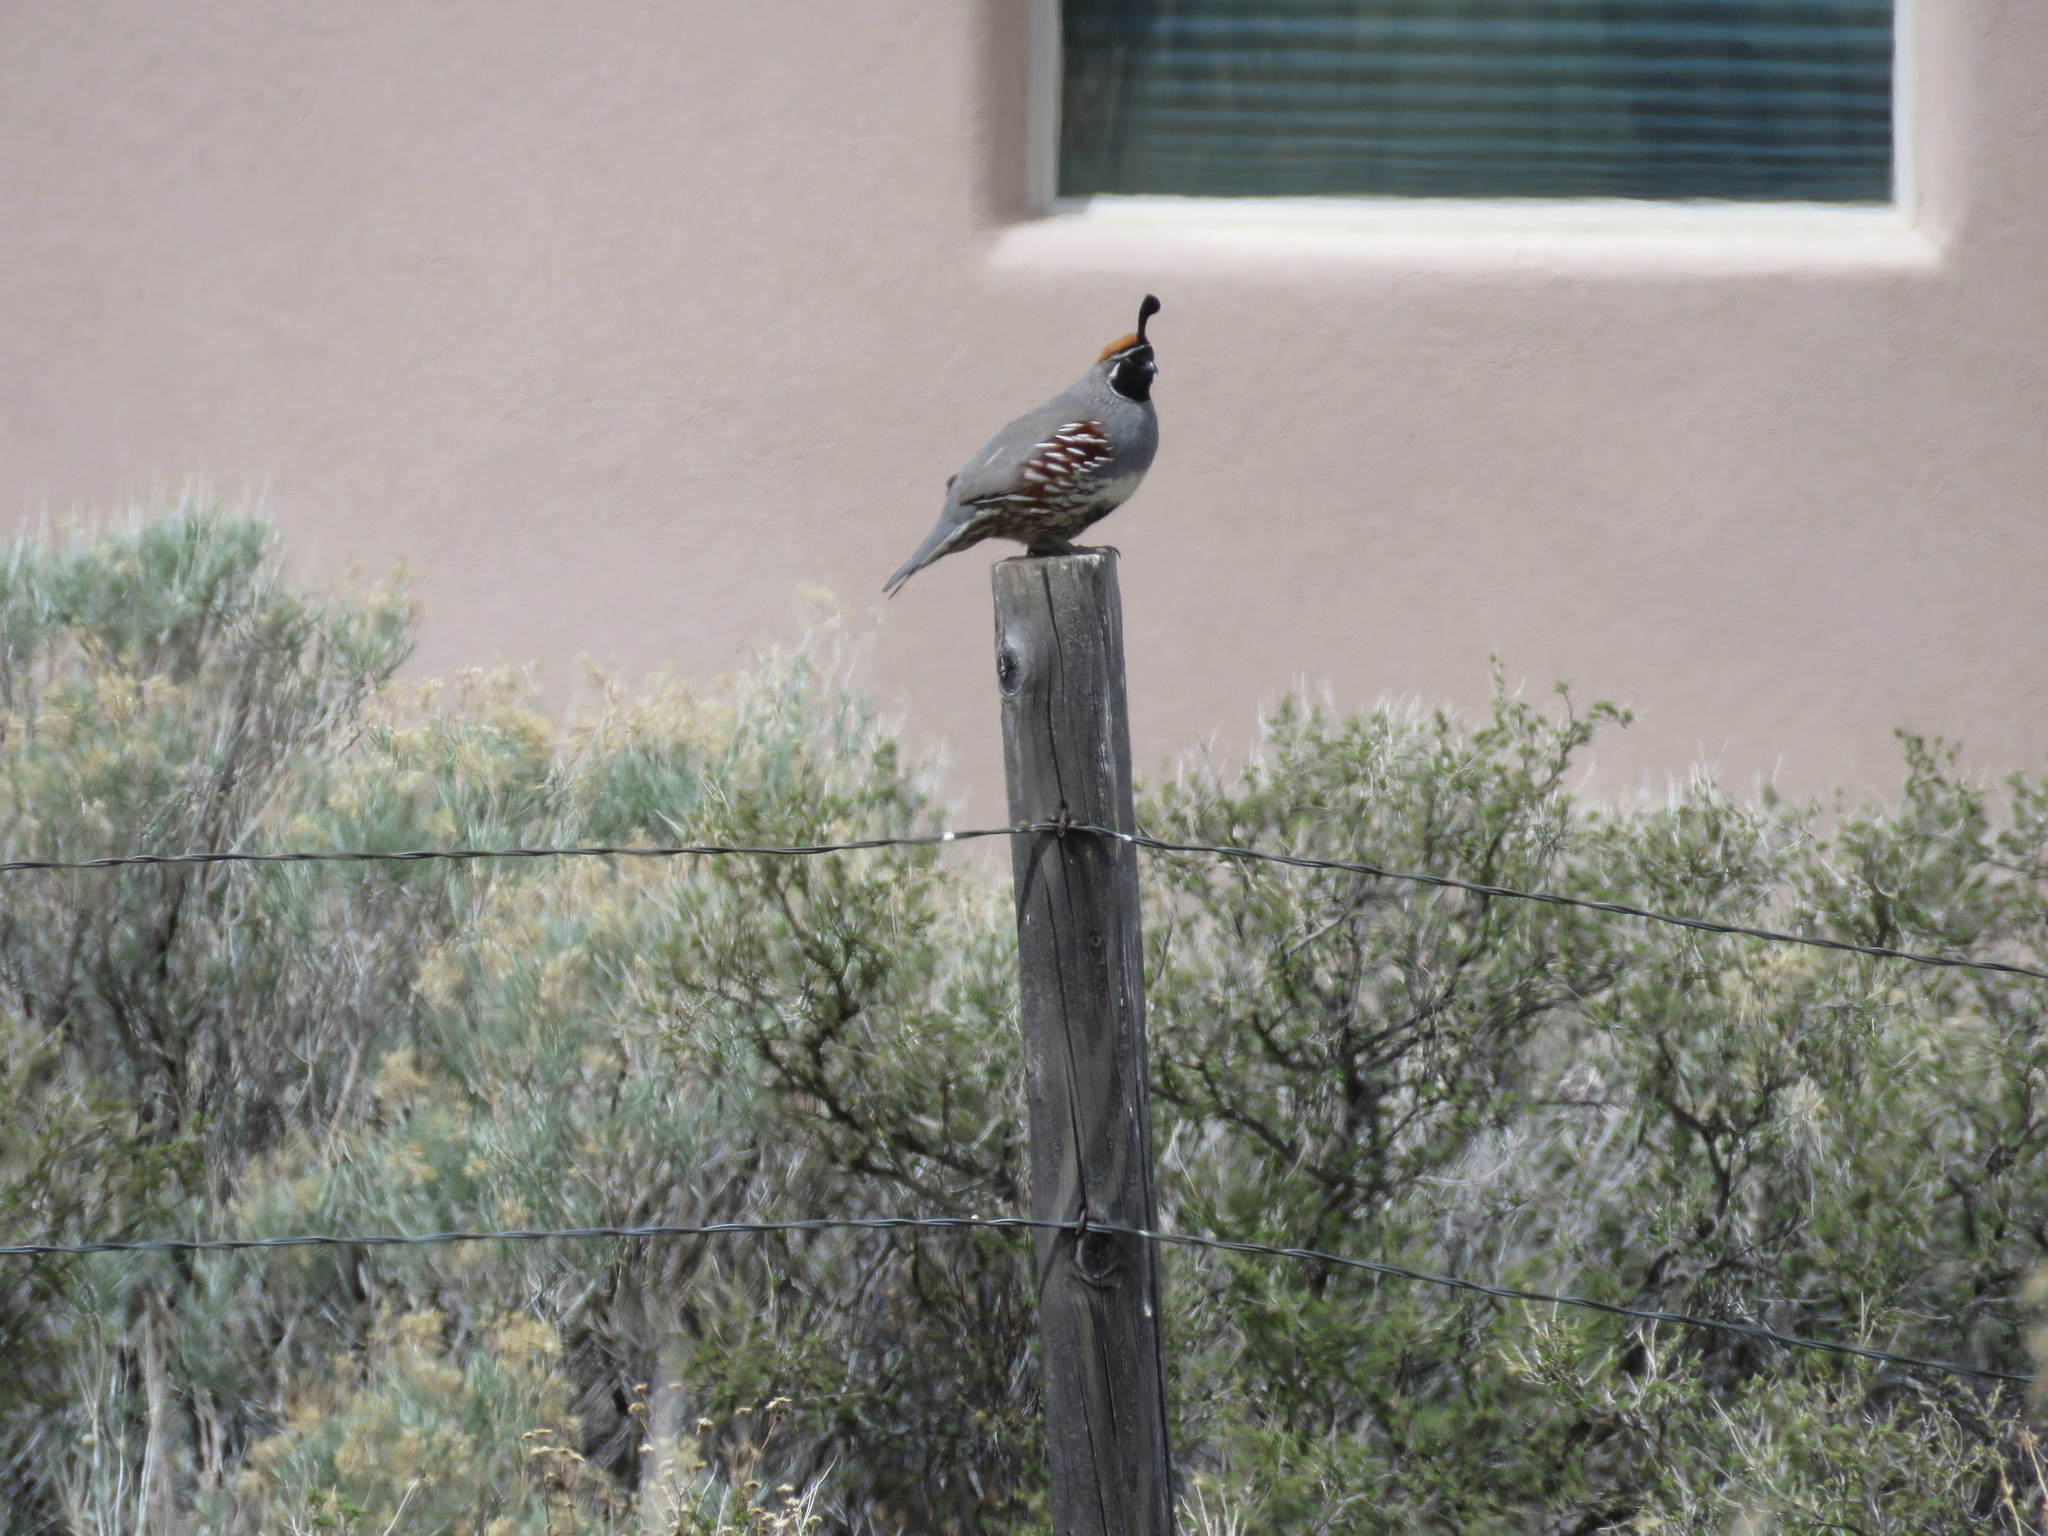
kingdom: Animalia
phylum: Chordata
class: Aves
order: Galliformes
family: Odontophoridae
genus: Callipepla
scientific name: Callipepla gambelii
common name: Gambel's quail
